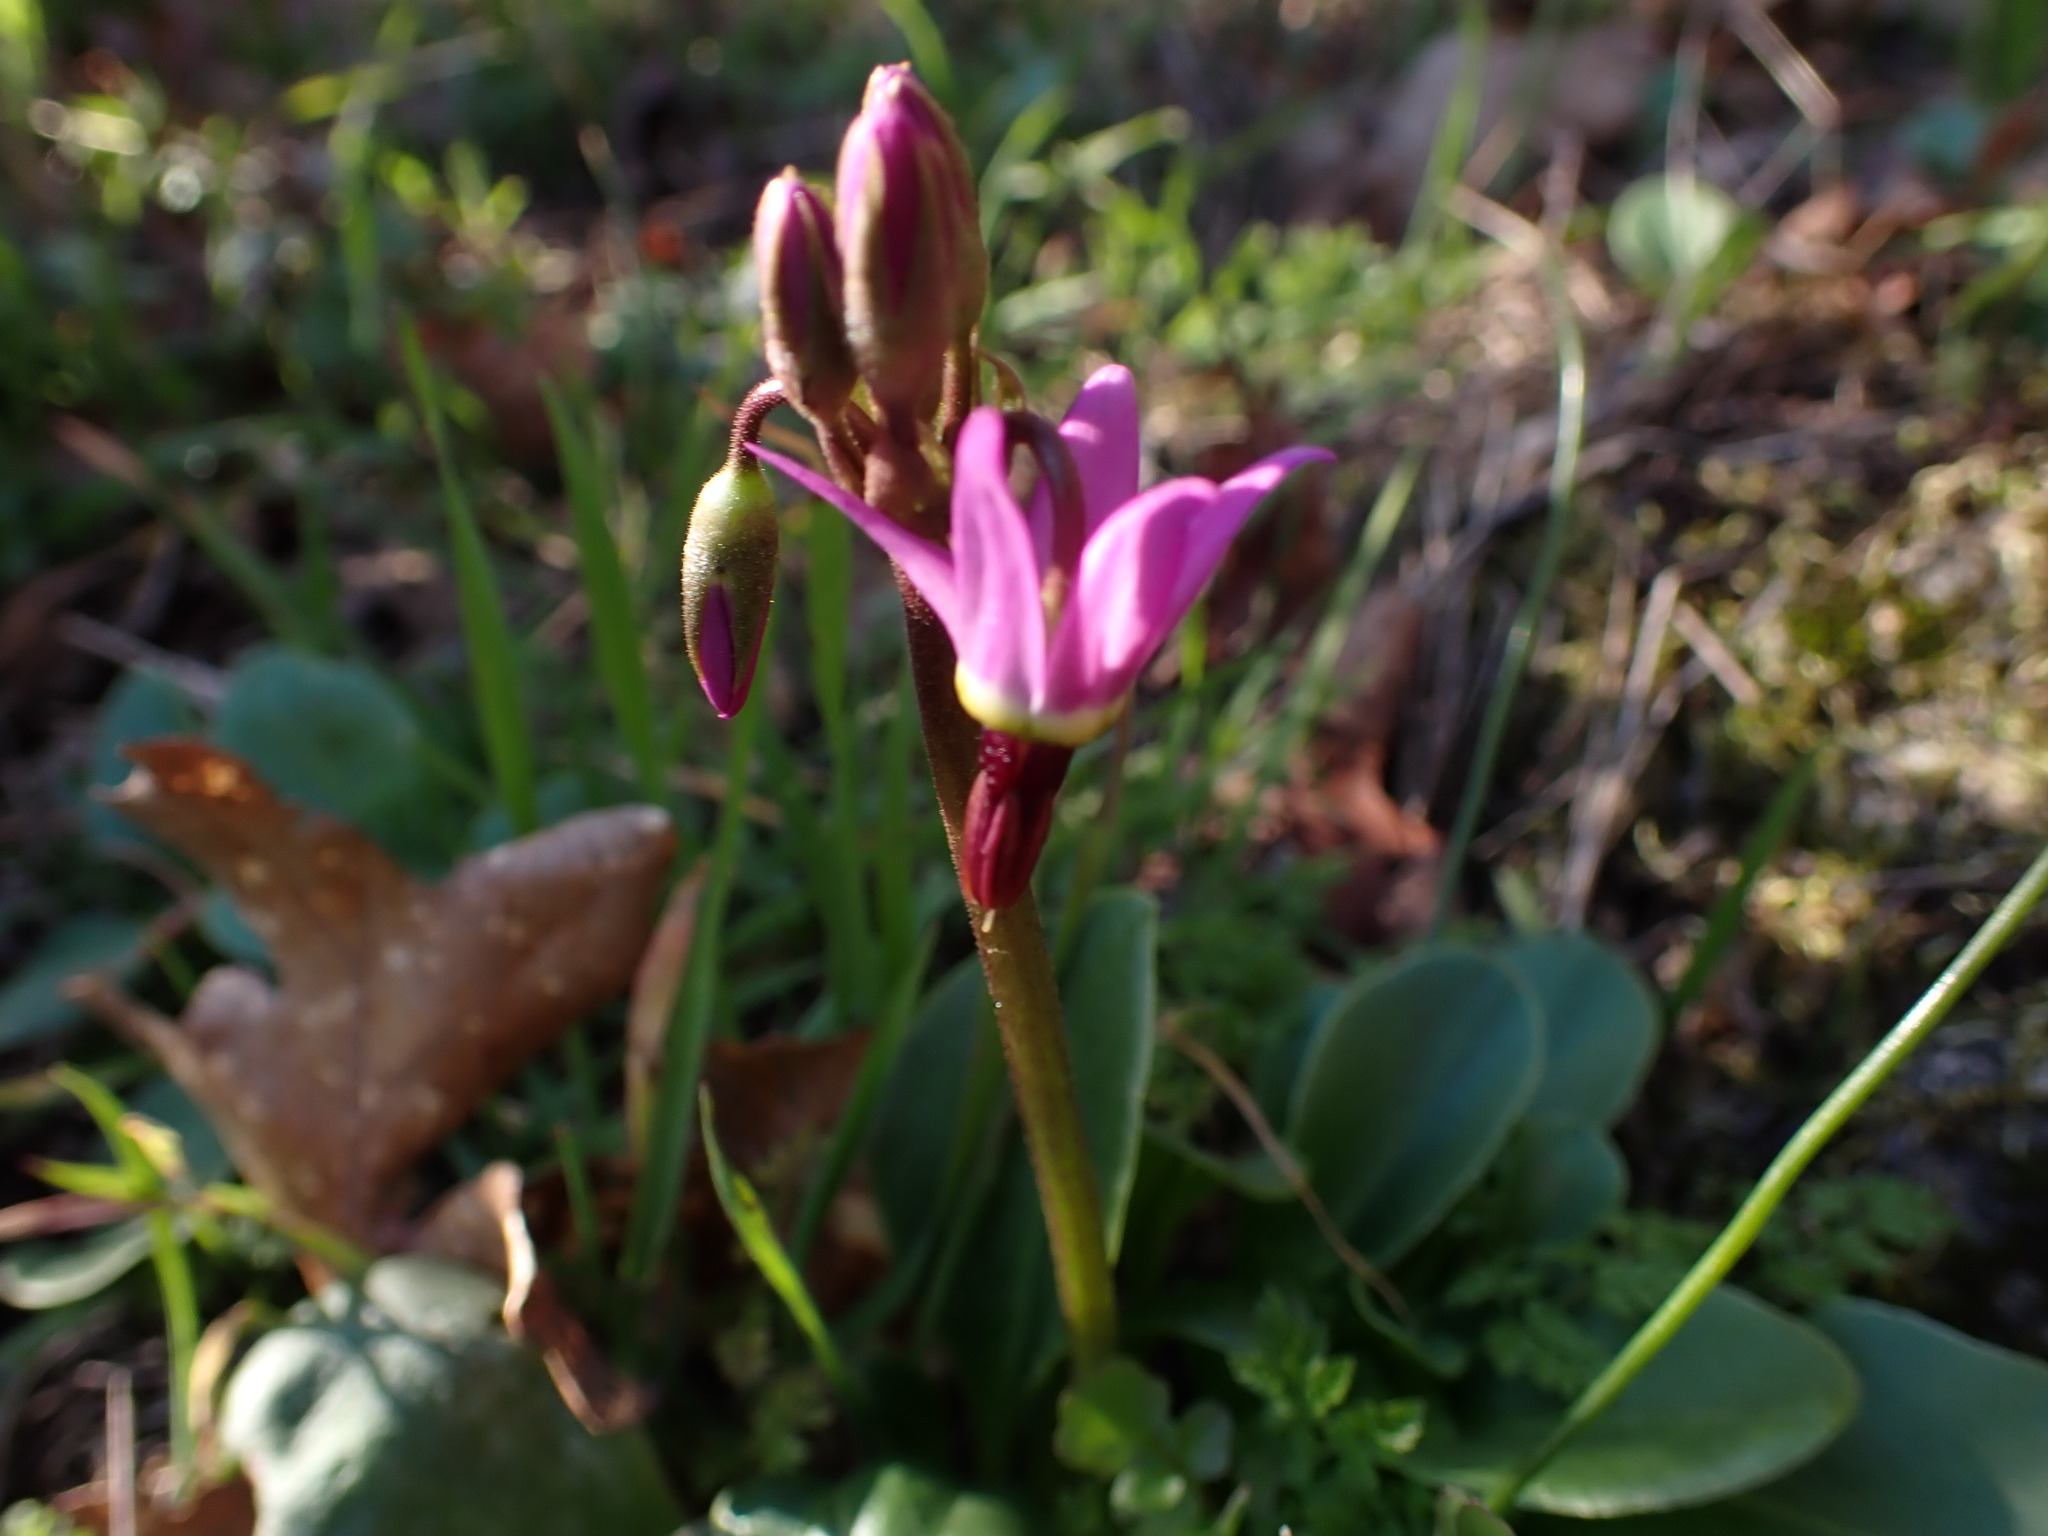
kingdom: Plantae
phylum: Tracheophyta
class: Magnoliopsida
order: Ericales
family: Primulaceae
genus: Dodecatheon
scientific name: Dodecatheon hendersonii
